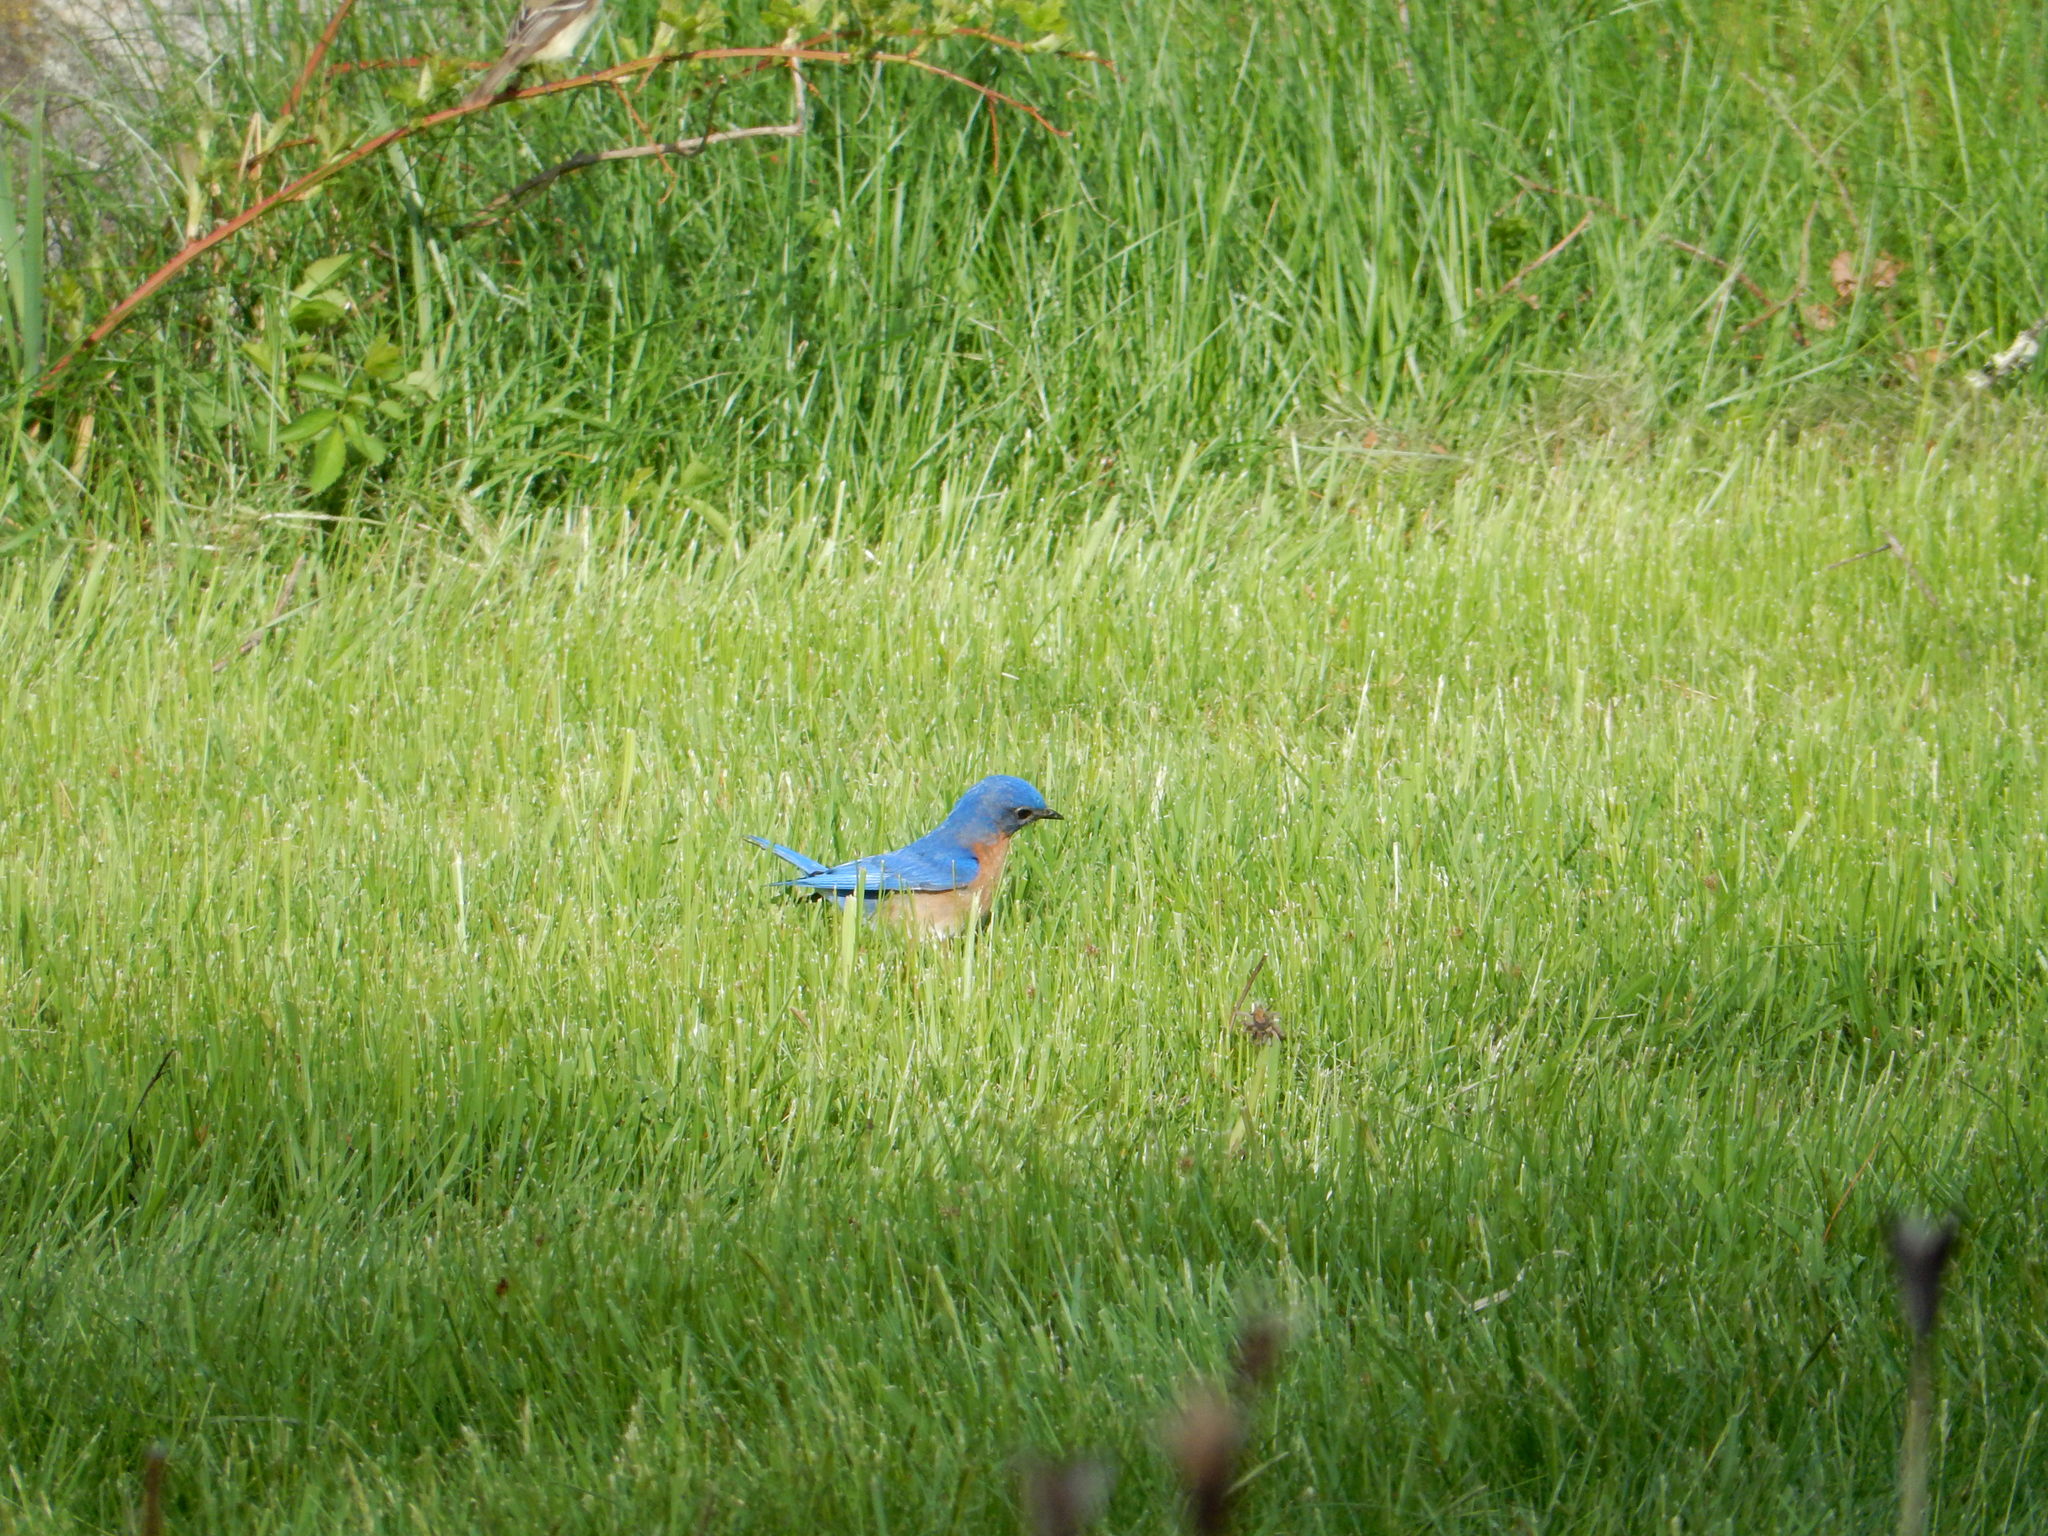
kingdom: Animalia
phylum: Chordata
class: Aves
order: Passeriformes
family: Turdidae
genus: Sialia
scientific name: Sialia sialis
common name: Eastern bluebird
